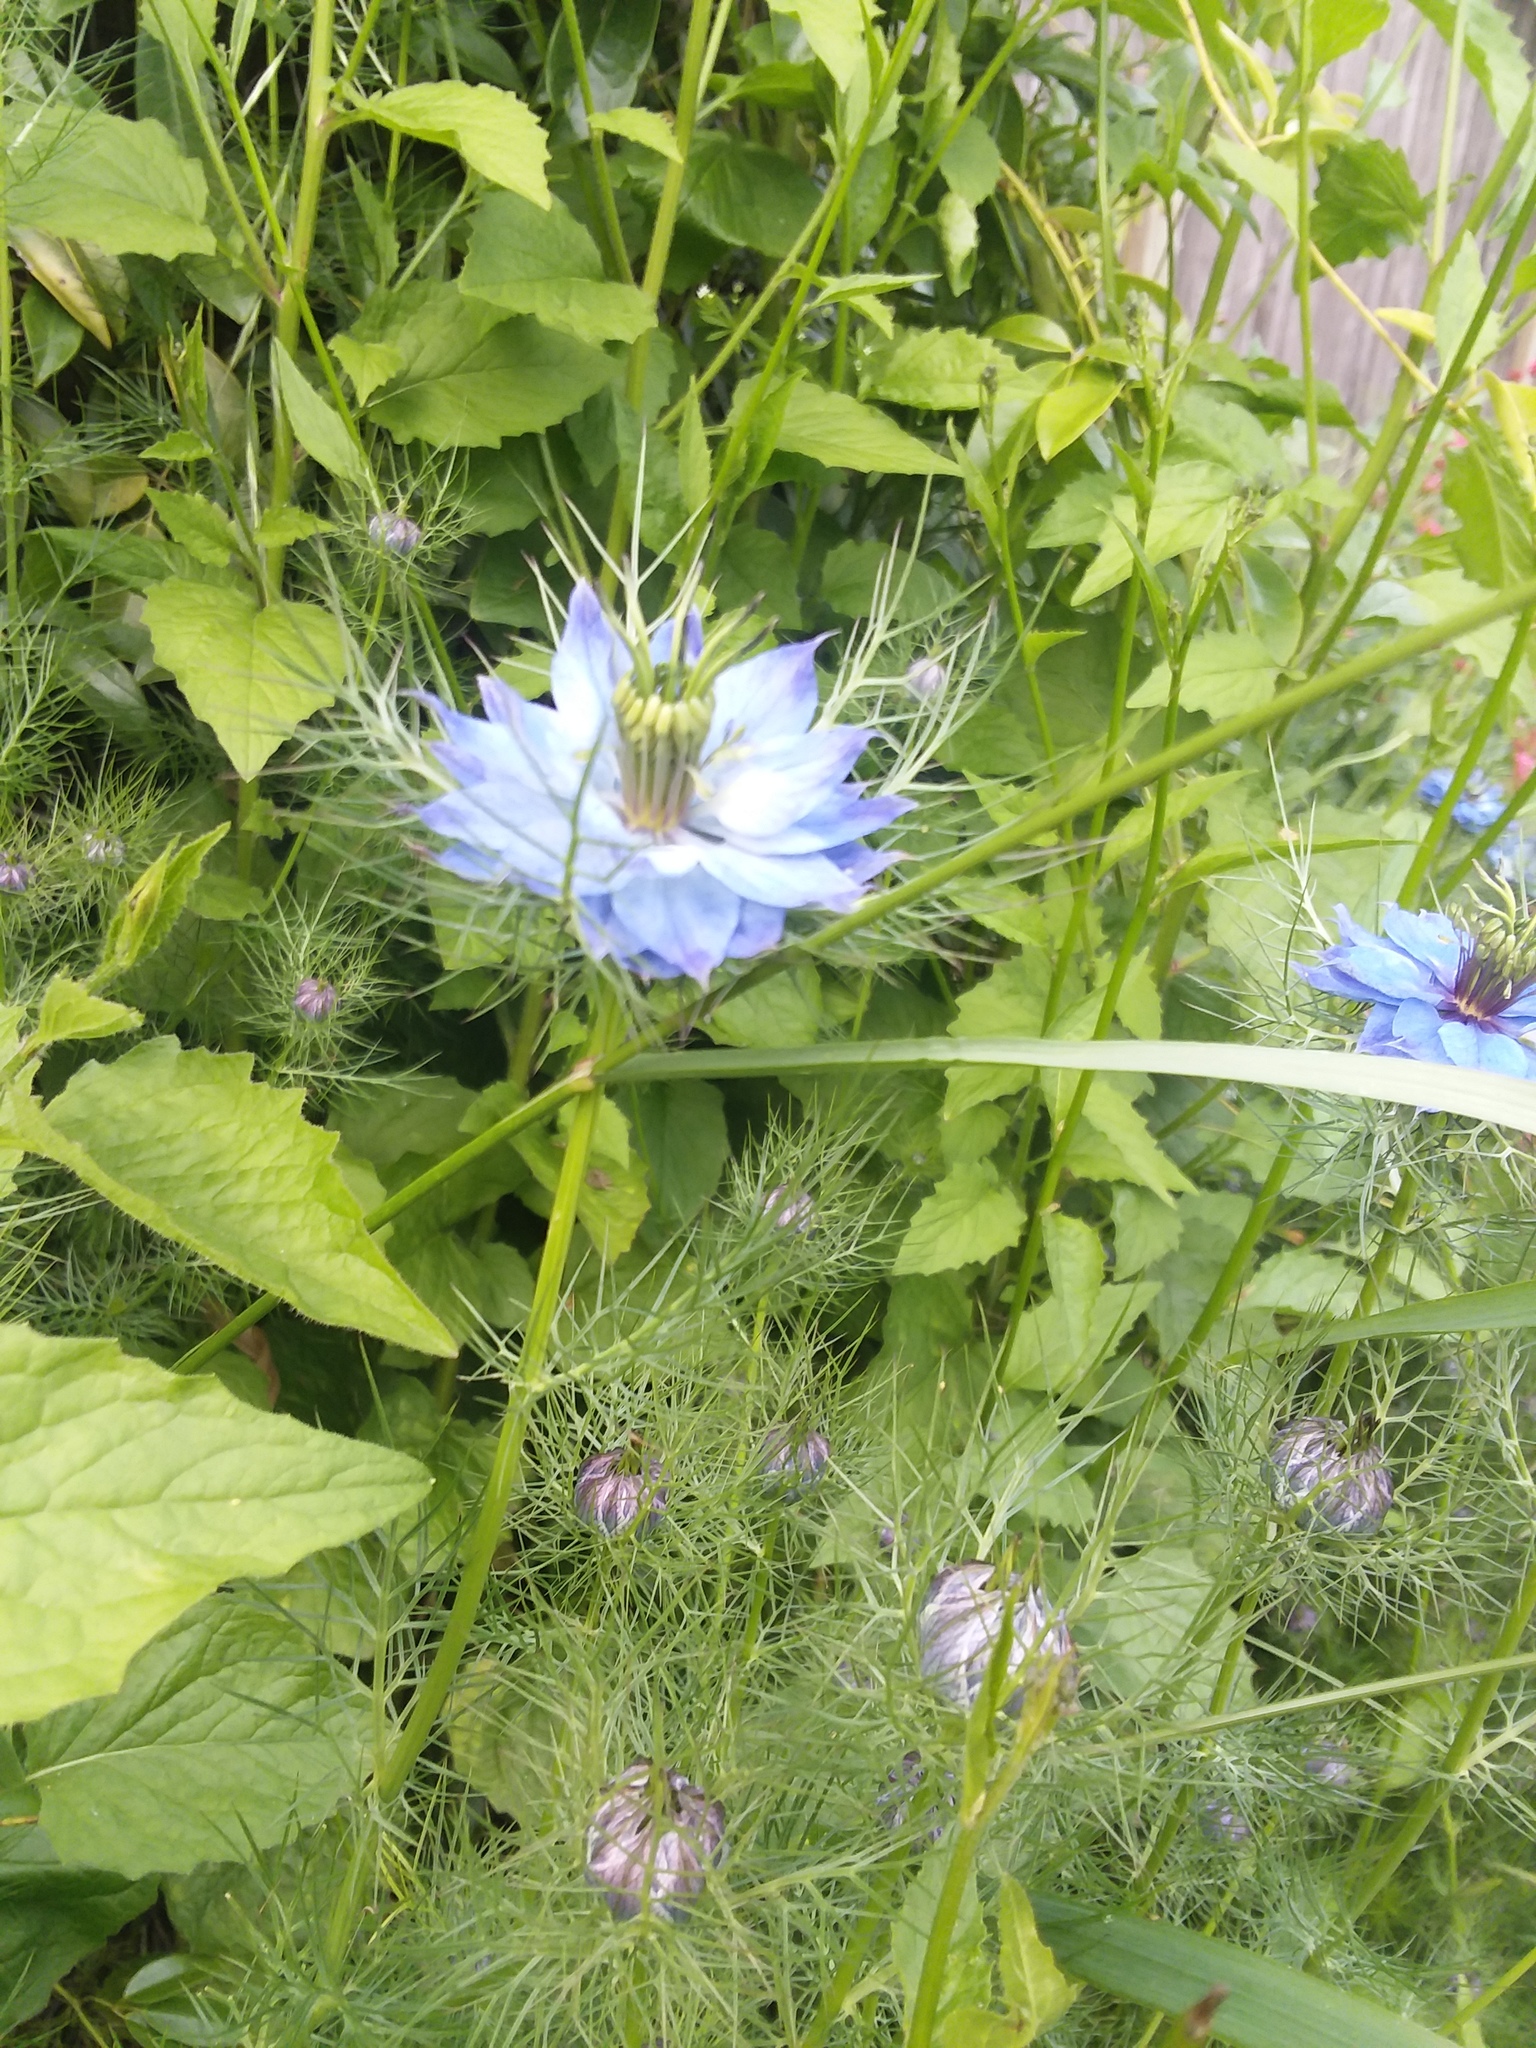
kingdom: Plantae
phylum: Tracheophyta
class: Magnoliopsida
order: Ranunculales
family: Ranunculaceae
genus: Nigella
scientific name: Nigella damascena
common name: Love-in-a-mist
